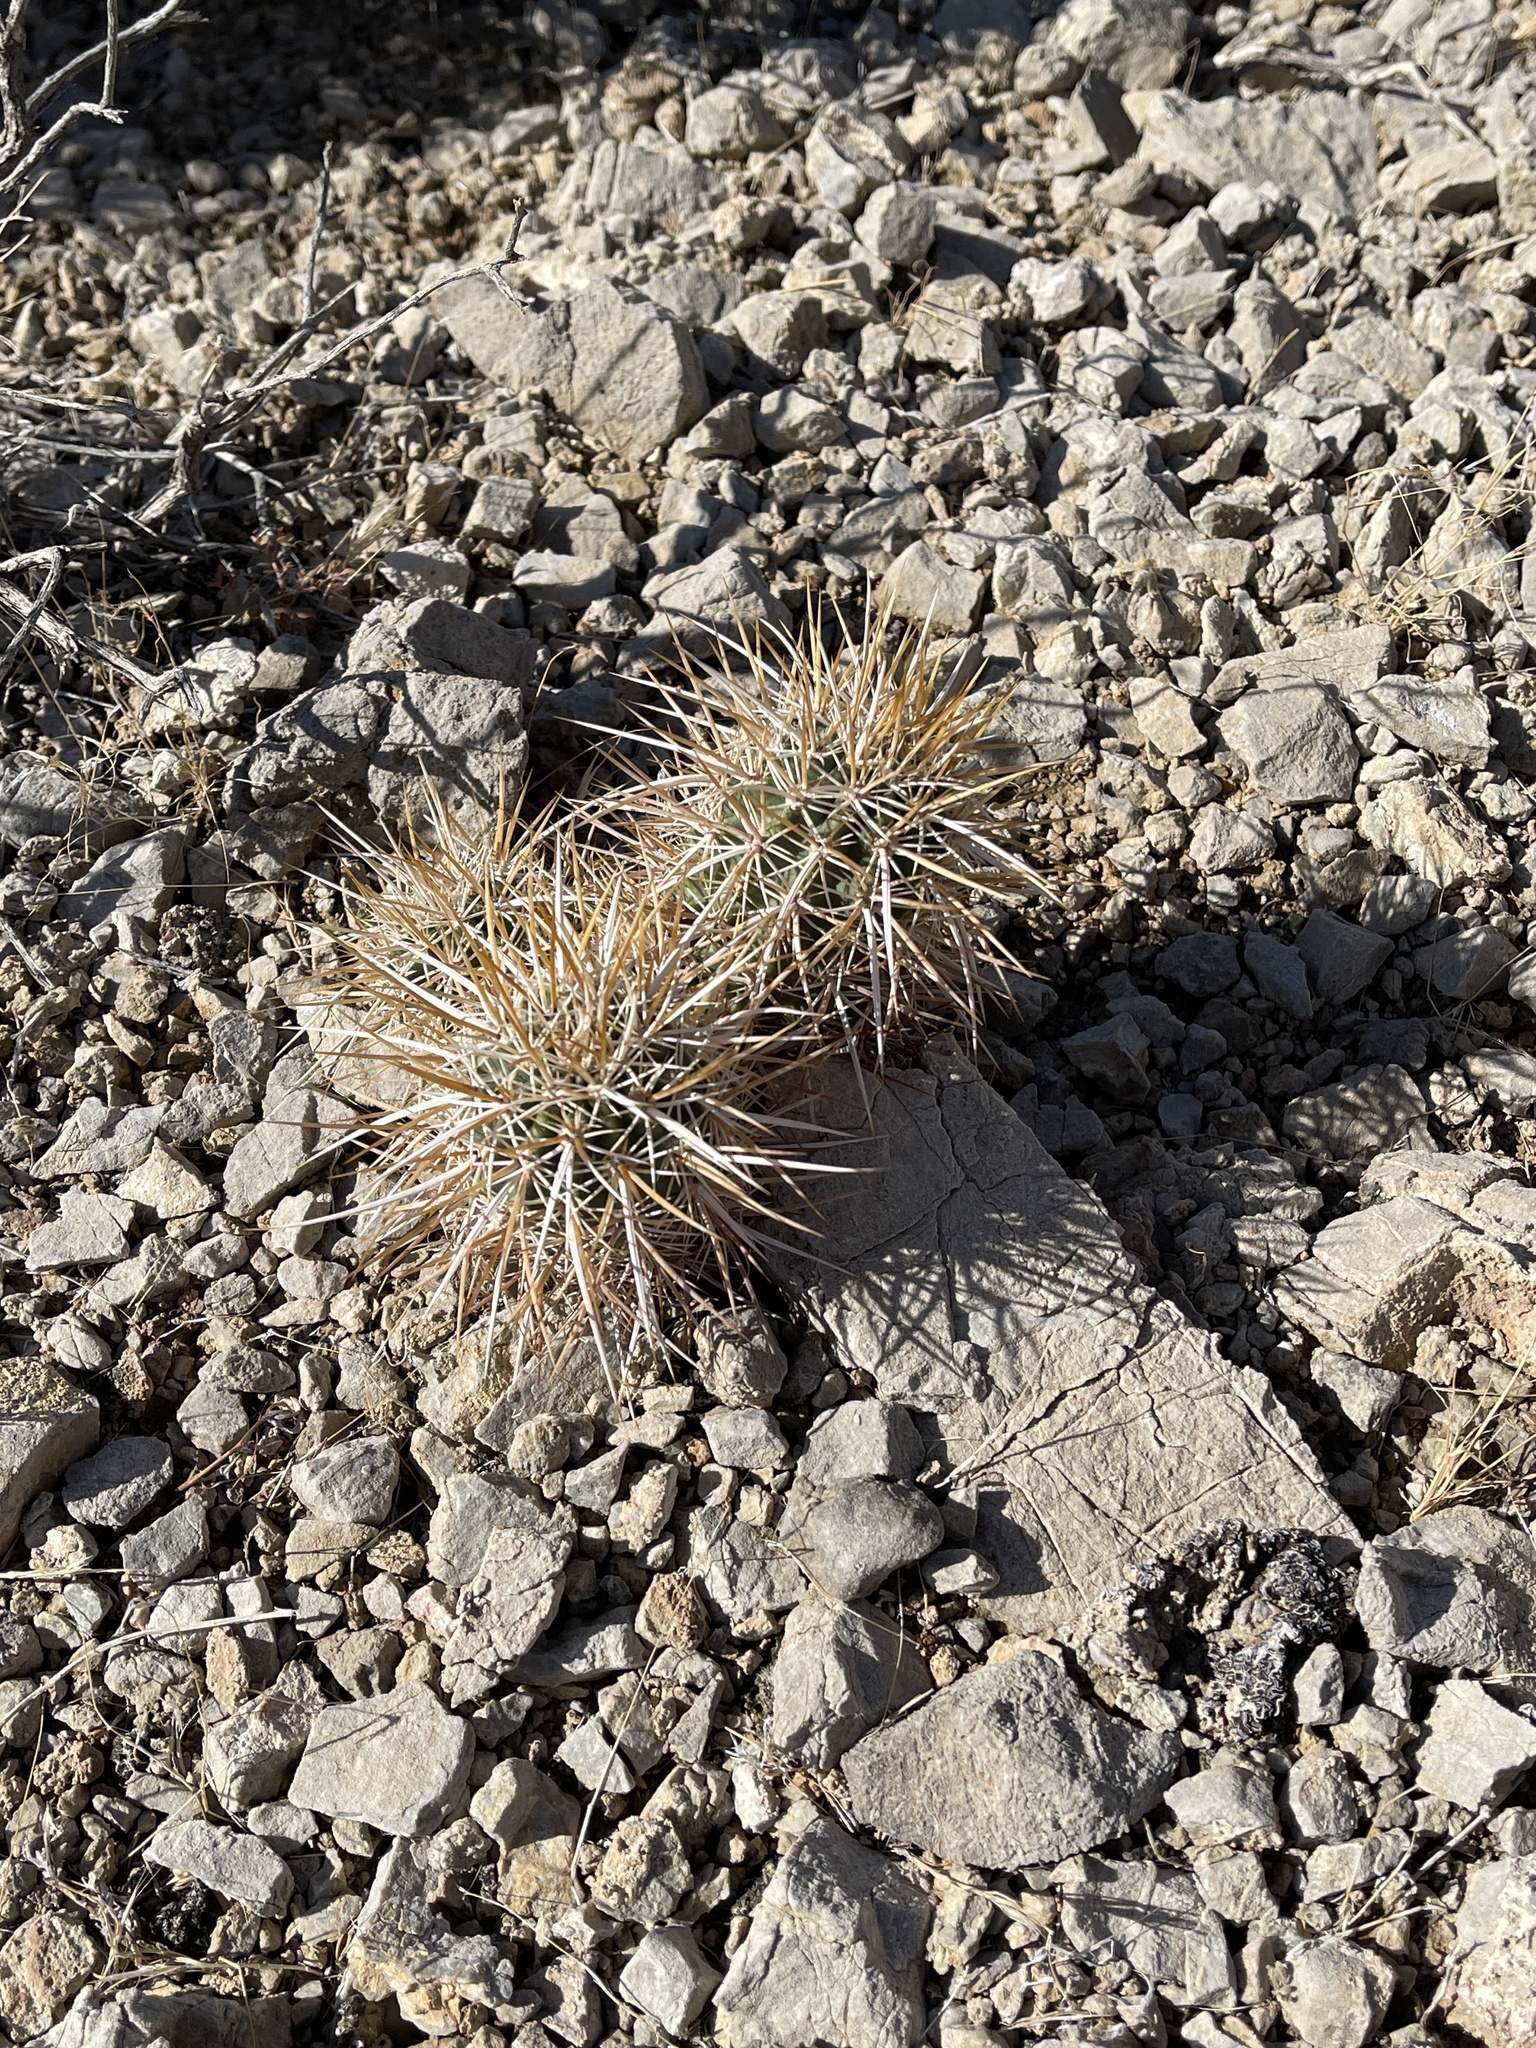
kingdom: Plantae
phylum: Tracheophyta
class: Magnoliopsida
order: Caryophyllales
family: Cactaceae
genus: Echinocereus
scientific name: Echinocereus engelmannii
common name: Engelmann's hedgehog cactus
